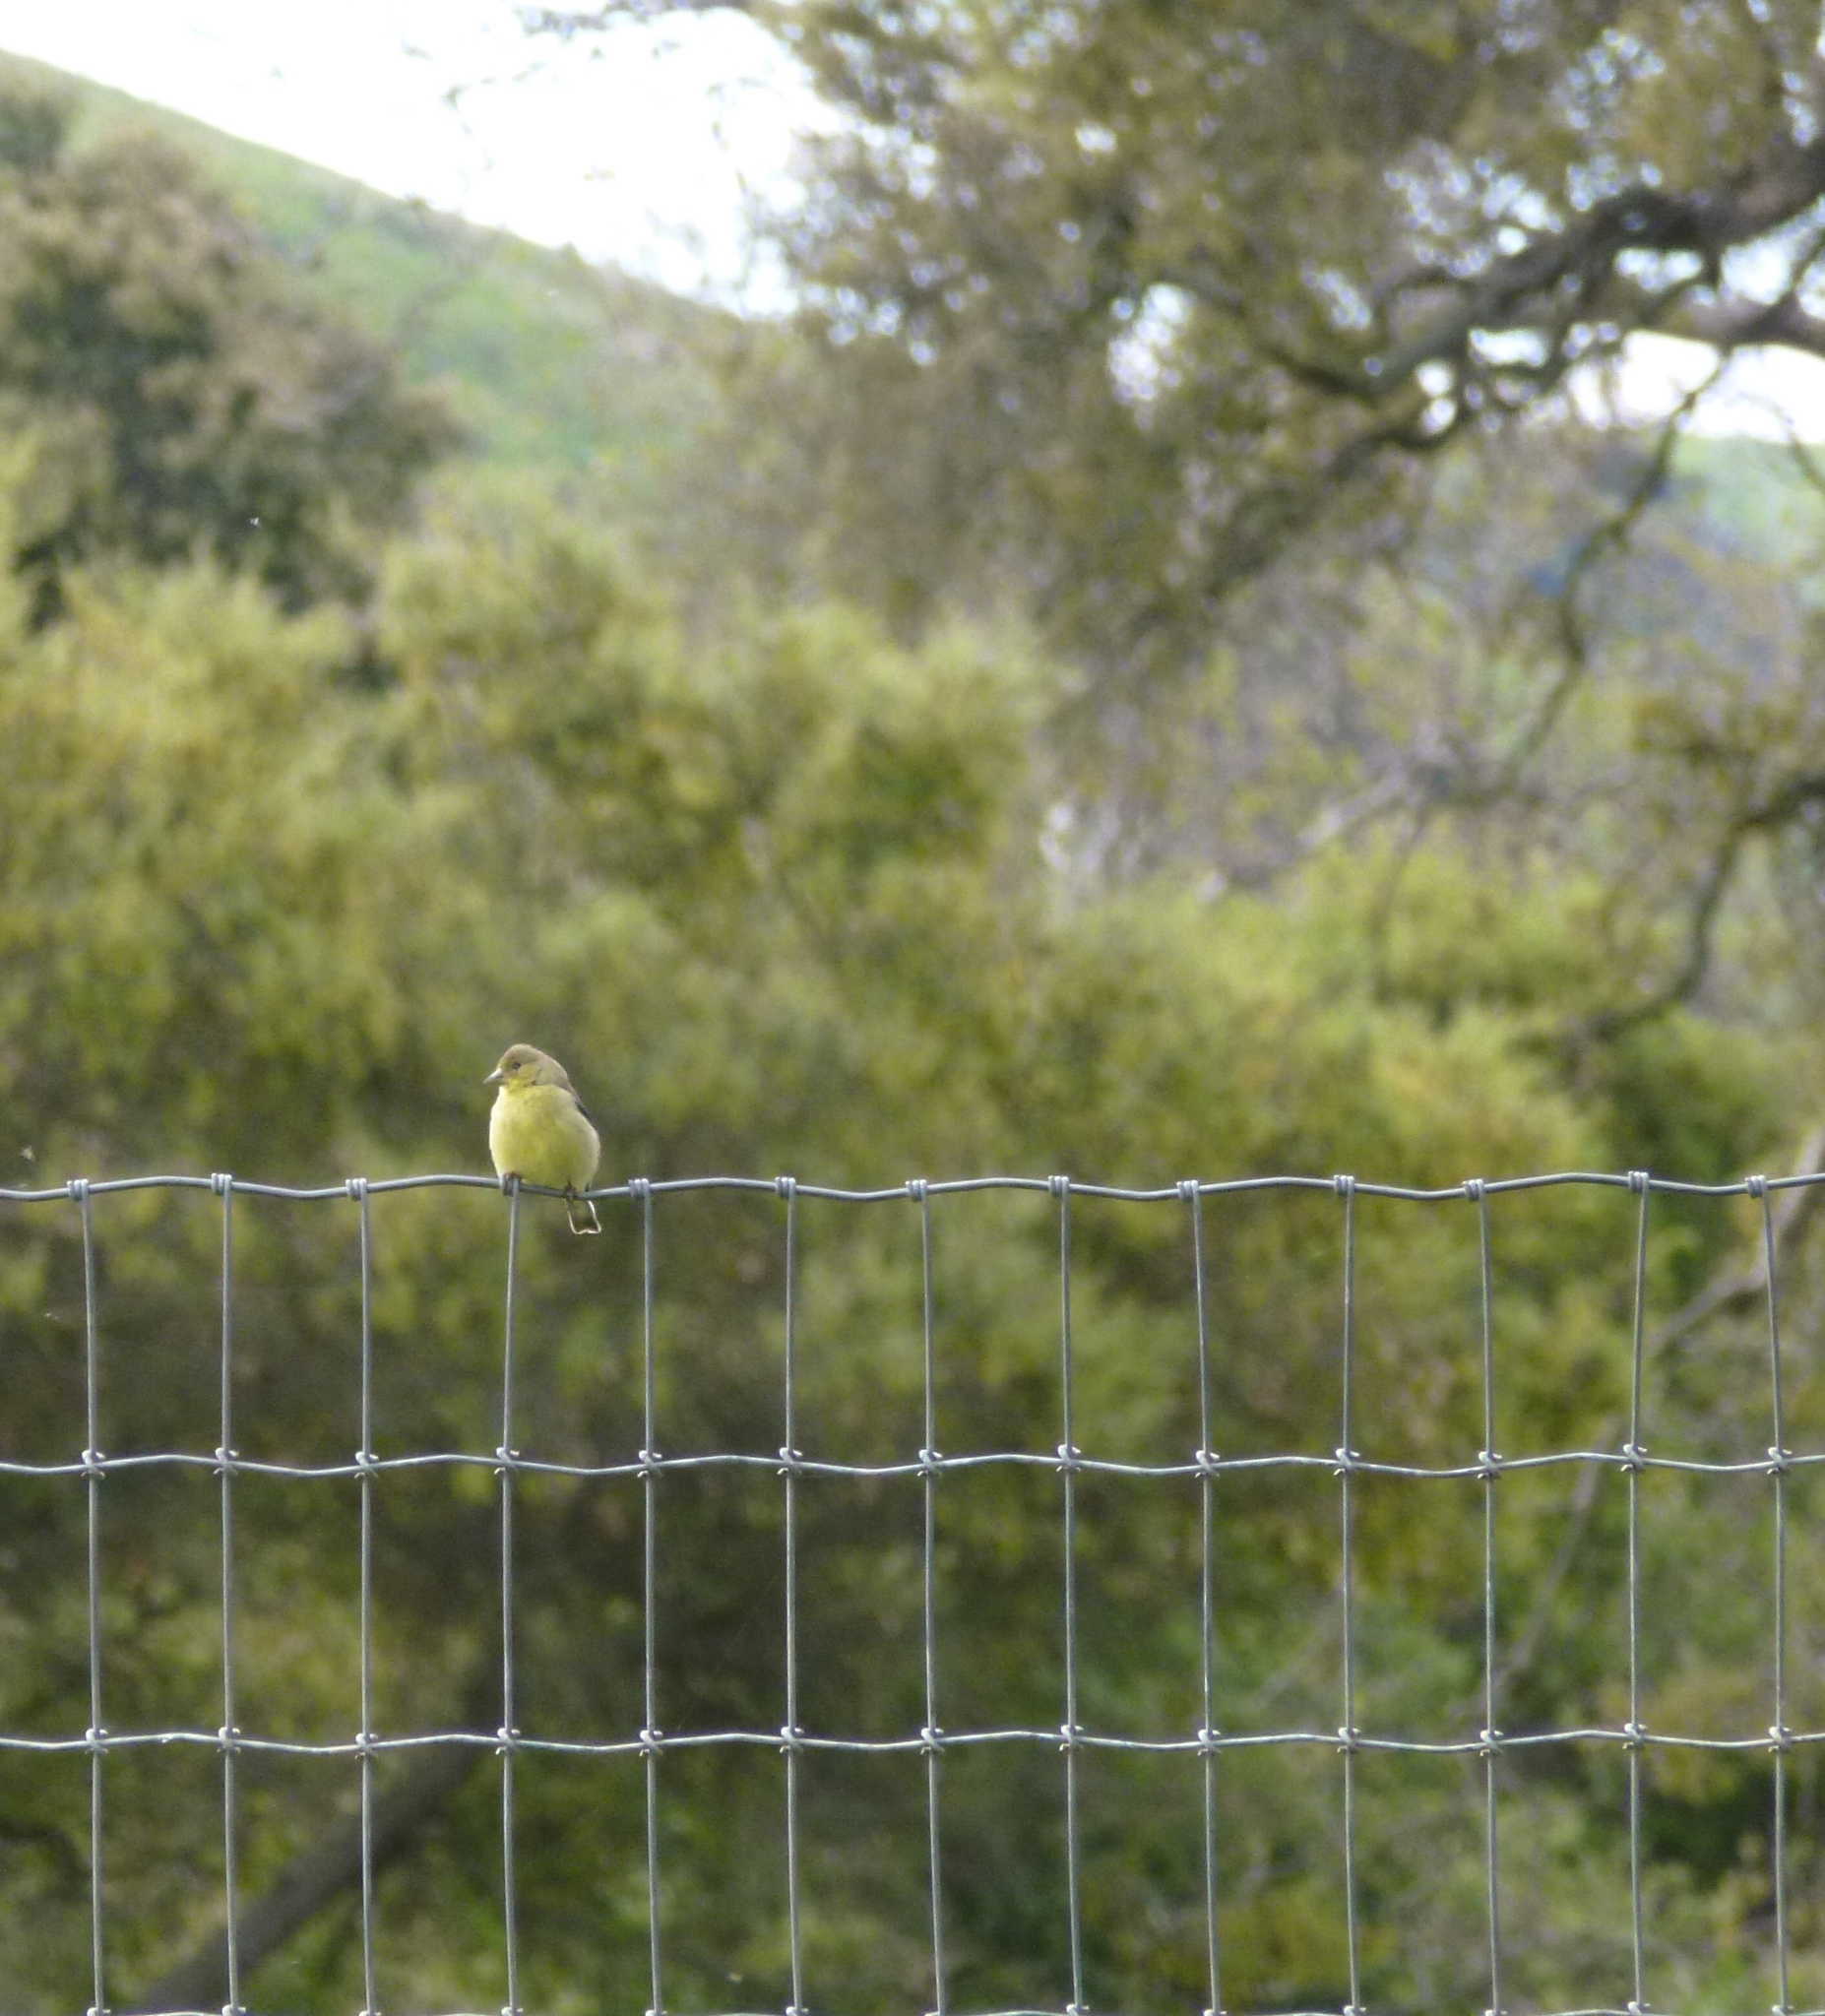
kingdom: Animalia
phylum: Chordata
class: Aves
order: Passeriformes
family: Fringillidae
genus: Spinus
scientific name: Spinus psaltria
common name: Lesser goldfinch
